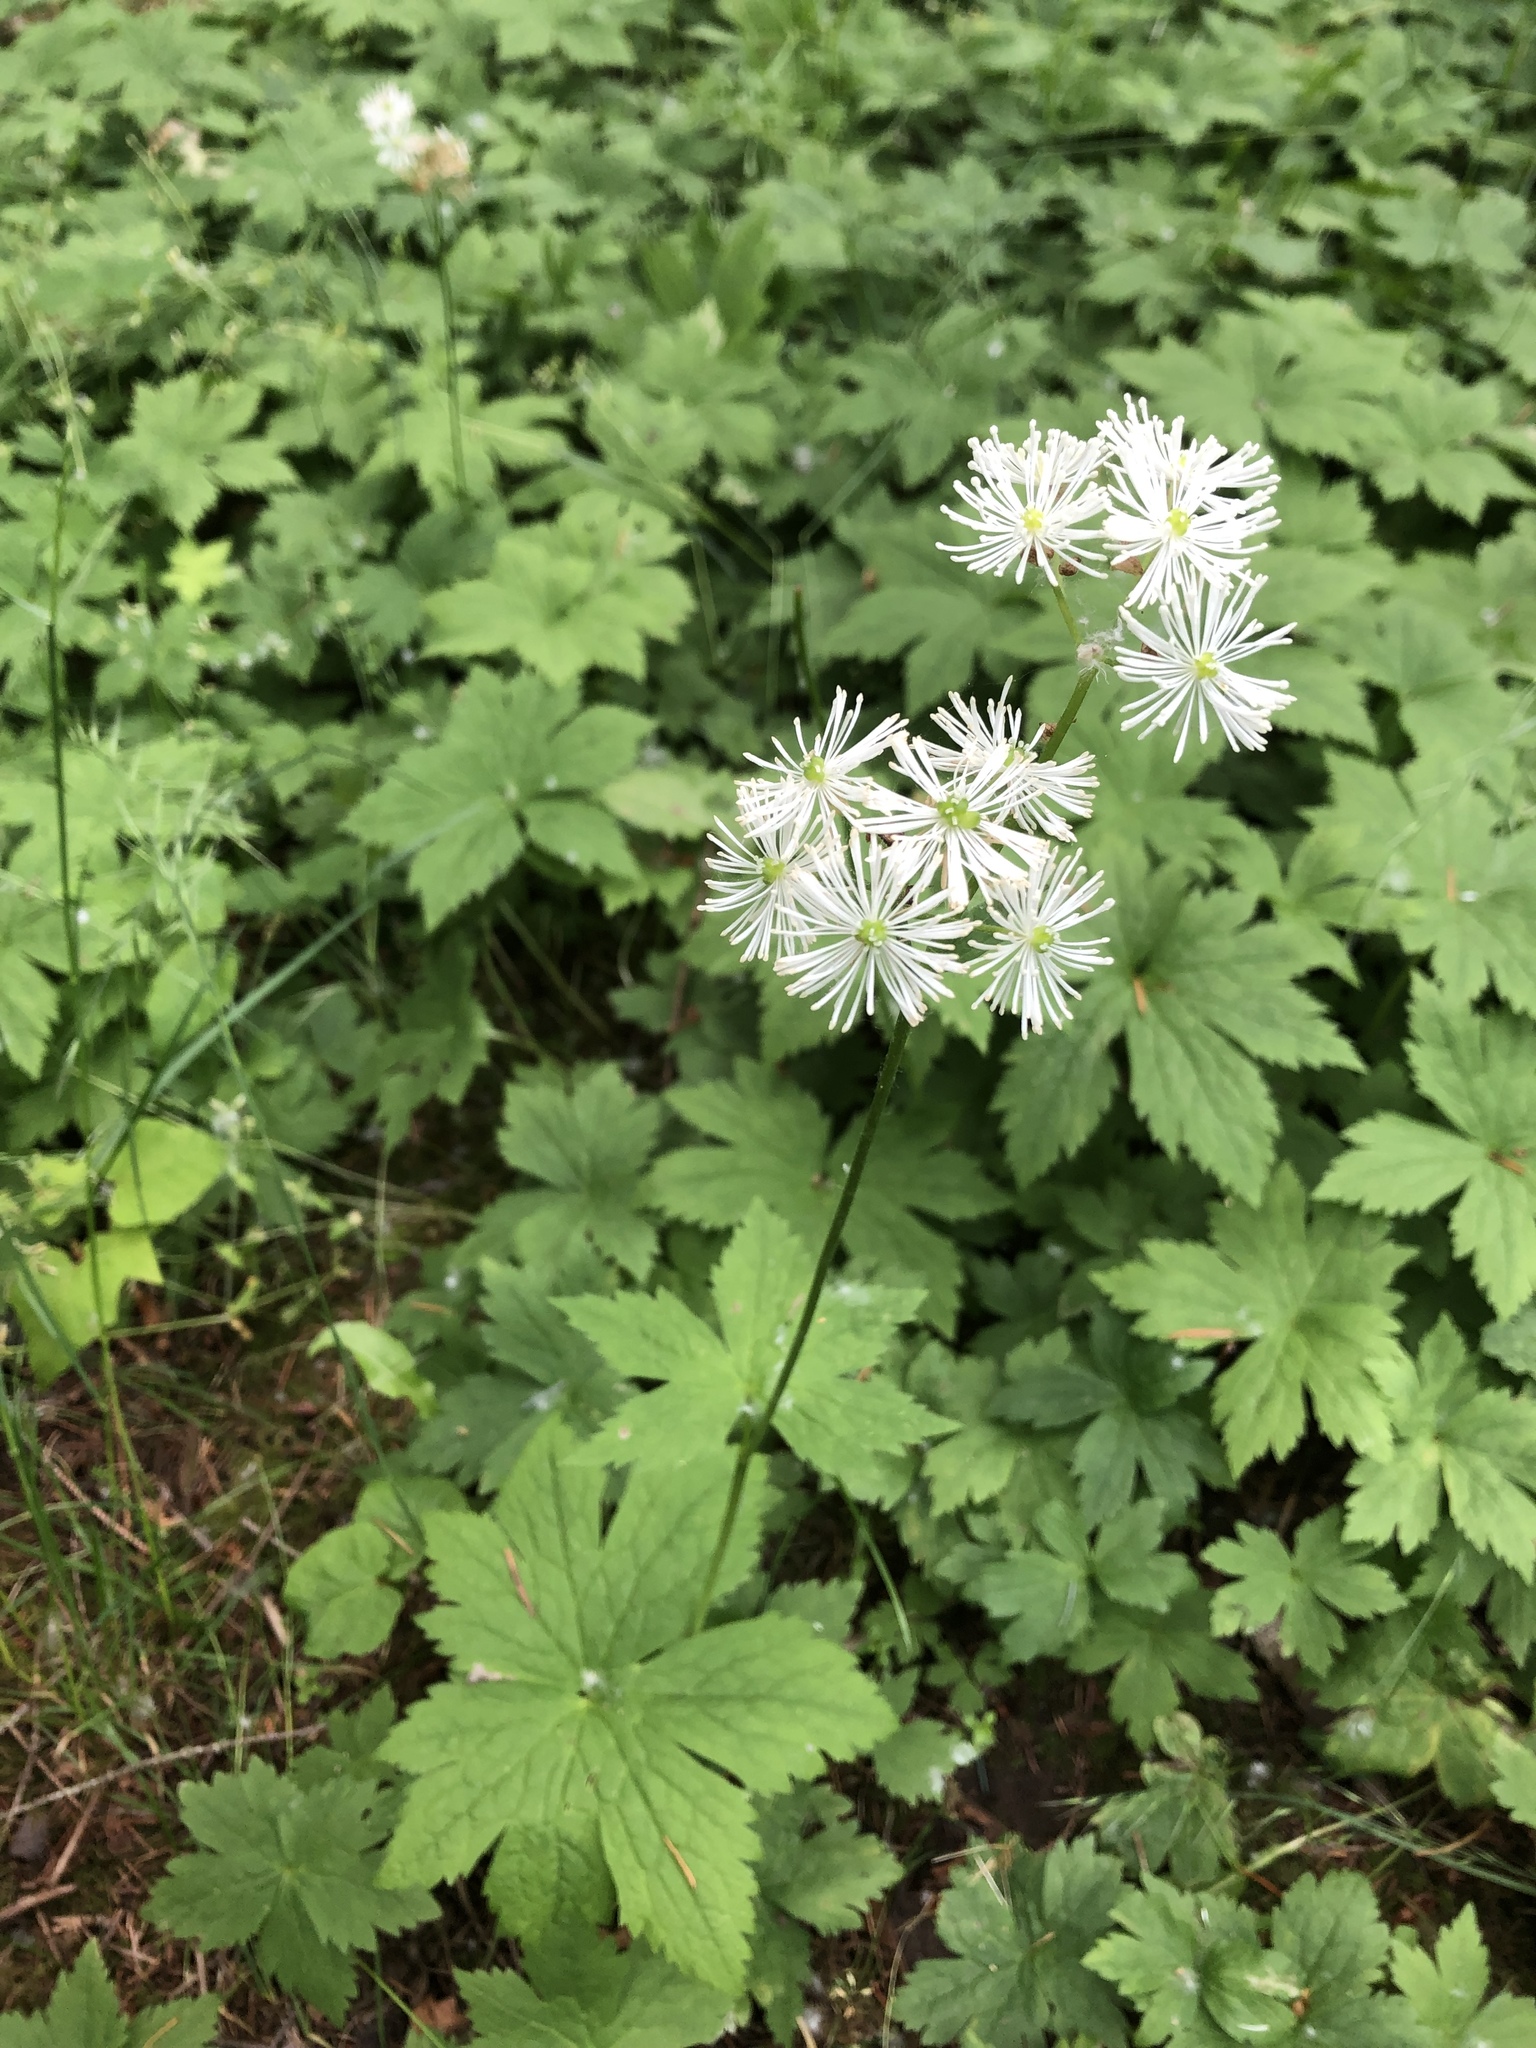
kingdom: Plantae
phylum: Tracheophyta
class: Magnoliopsida
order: Ranunculales
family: Ranunculaceae
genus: Trautvetteria
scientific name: Trautvetteria carolinensis
